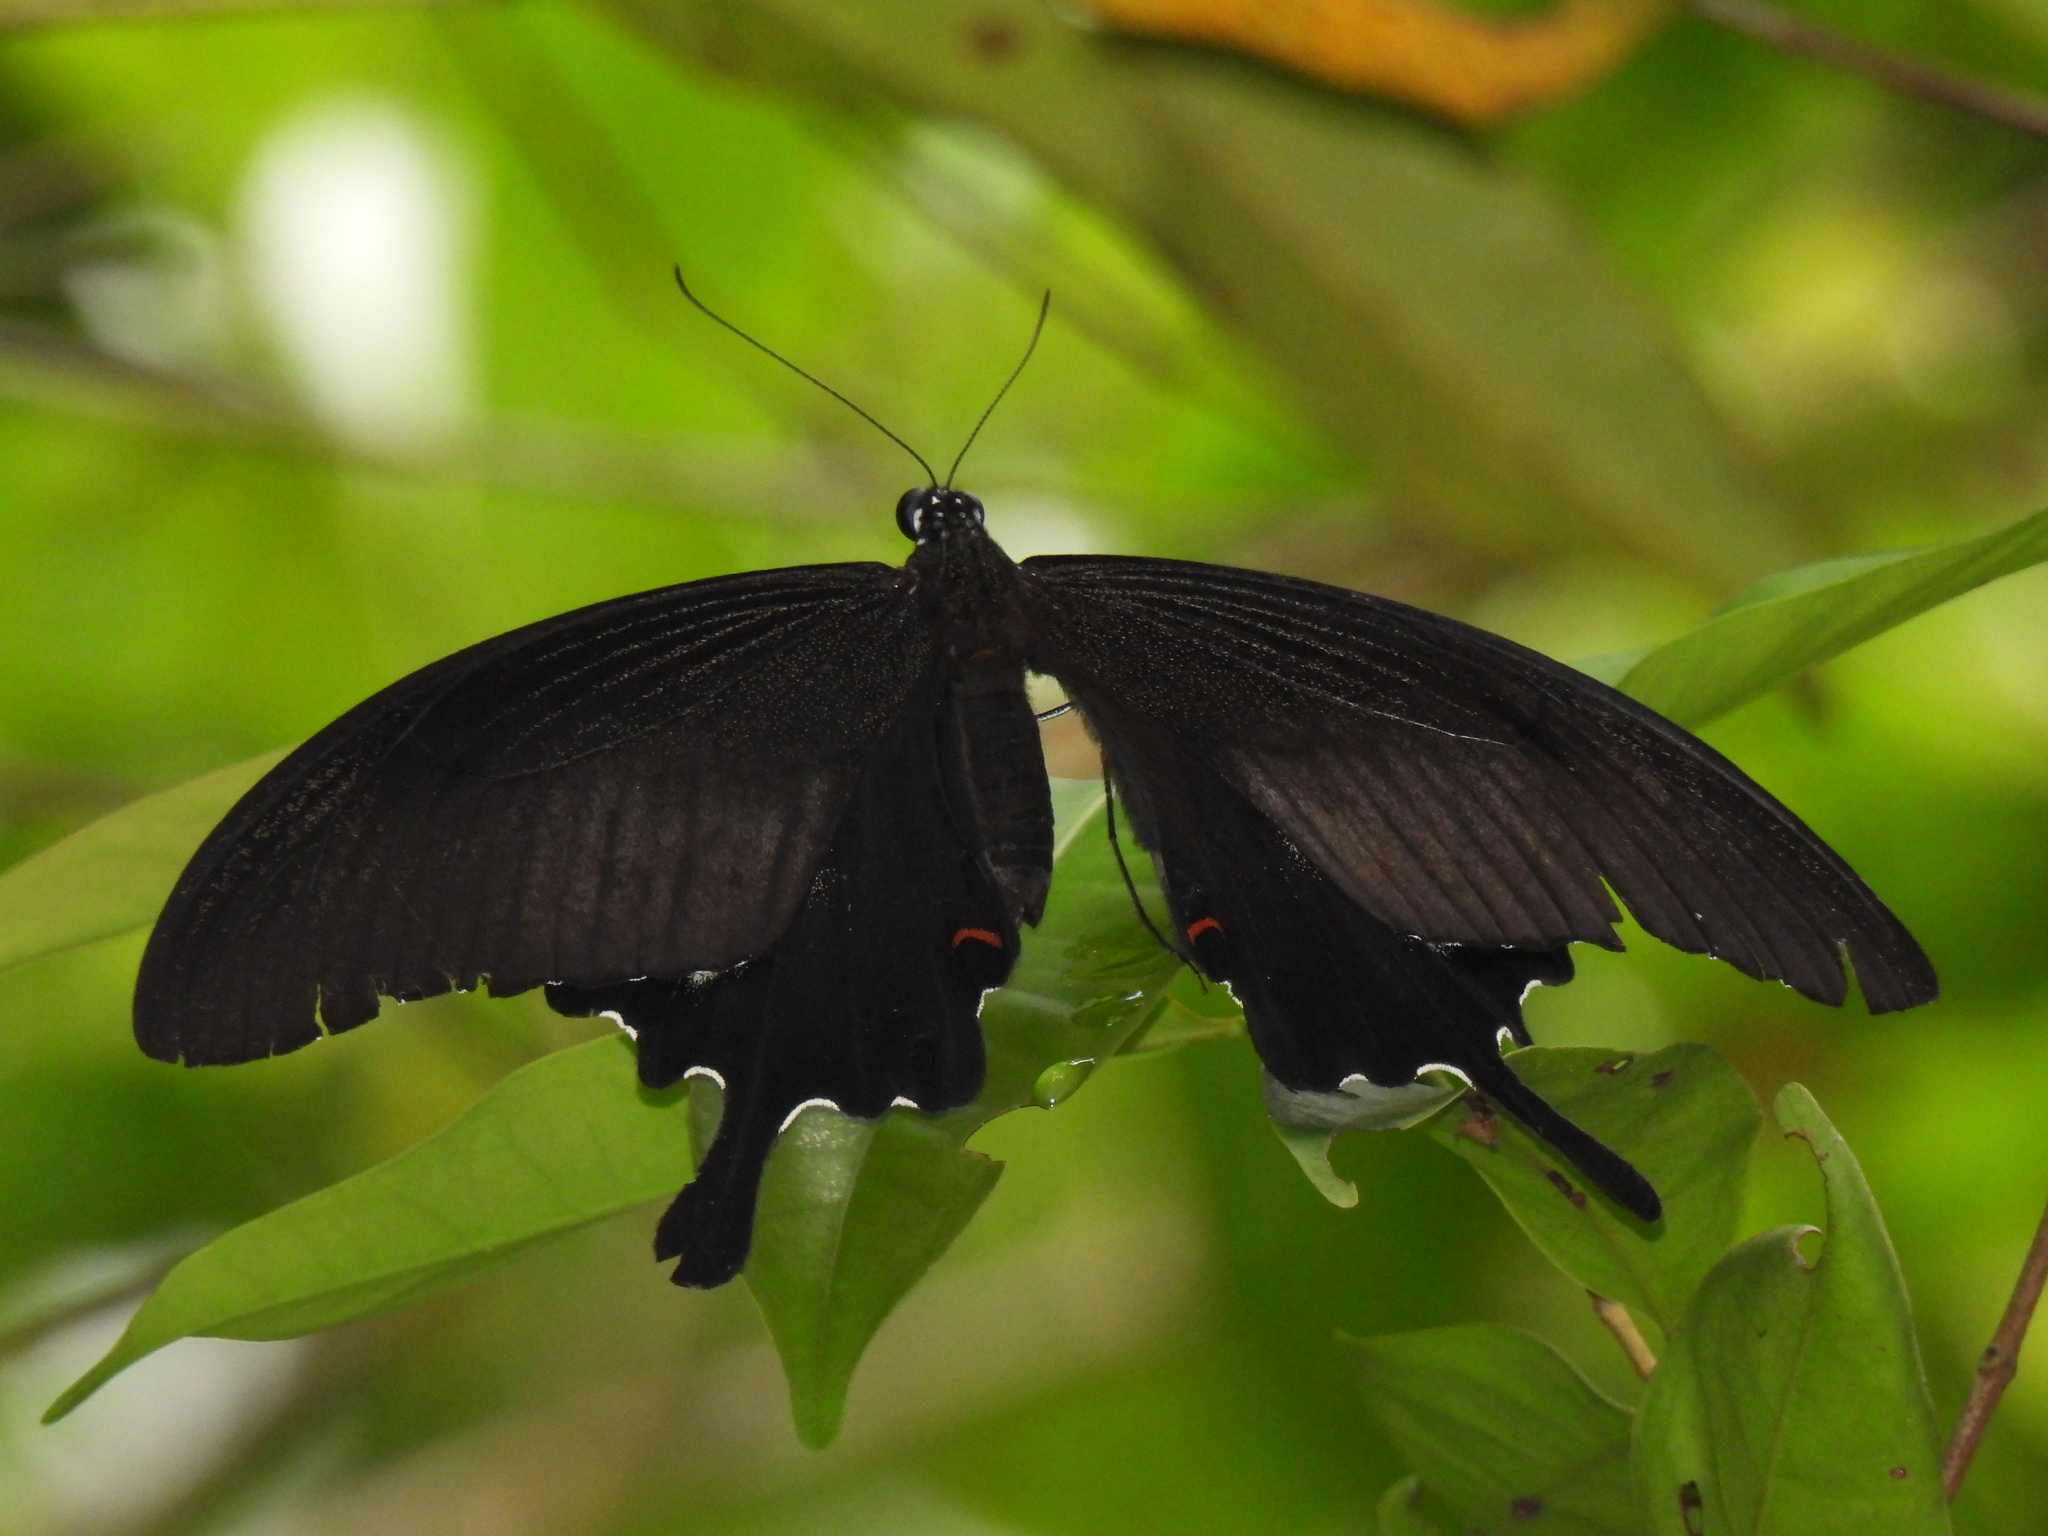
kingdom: Animalia
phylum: Arthropoda
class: Insecta
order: Lepidoptera
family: Papilionidae
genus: Papilio
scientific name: Papilio iswara
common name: Great helen swallowtail
